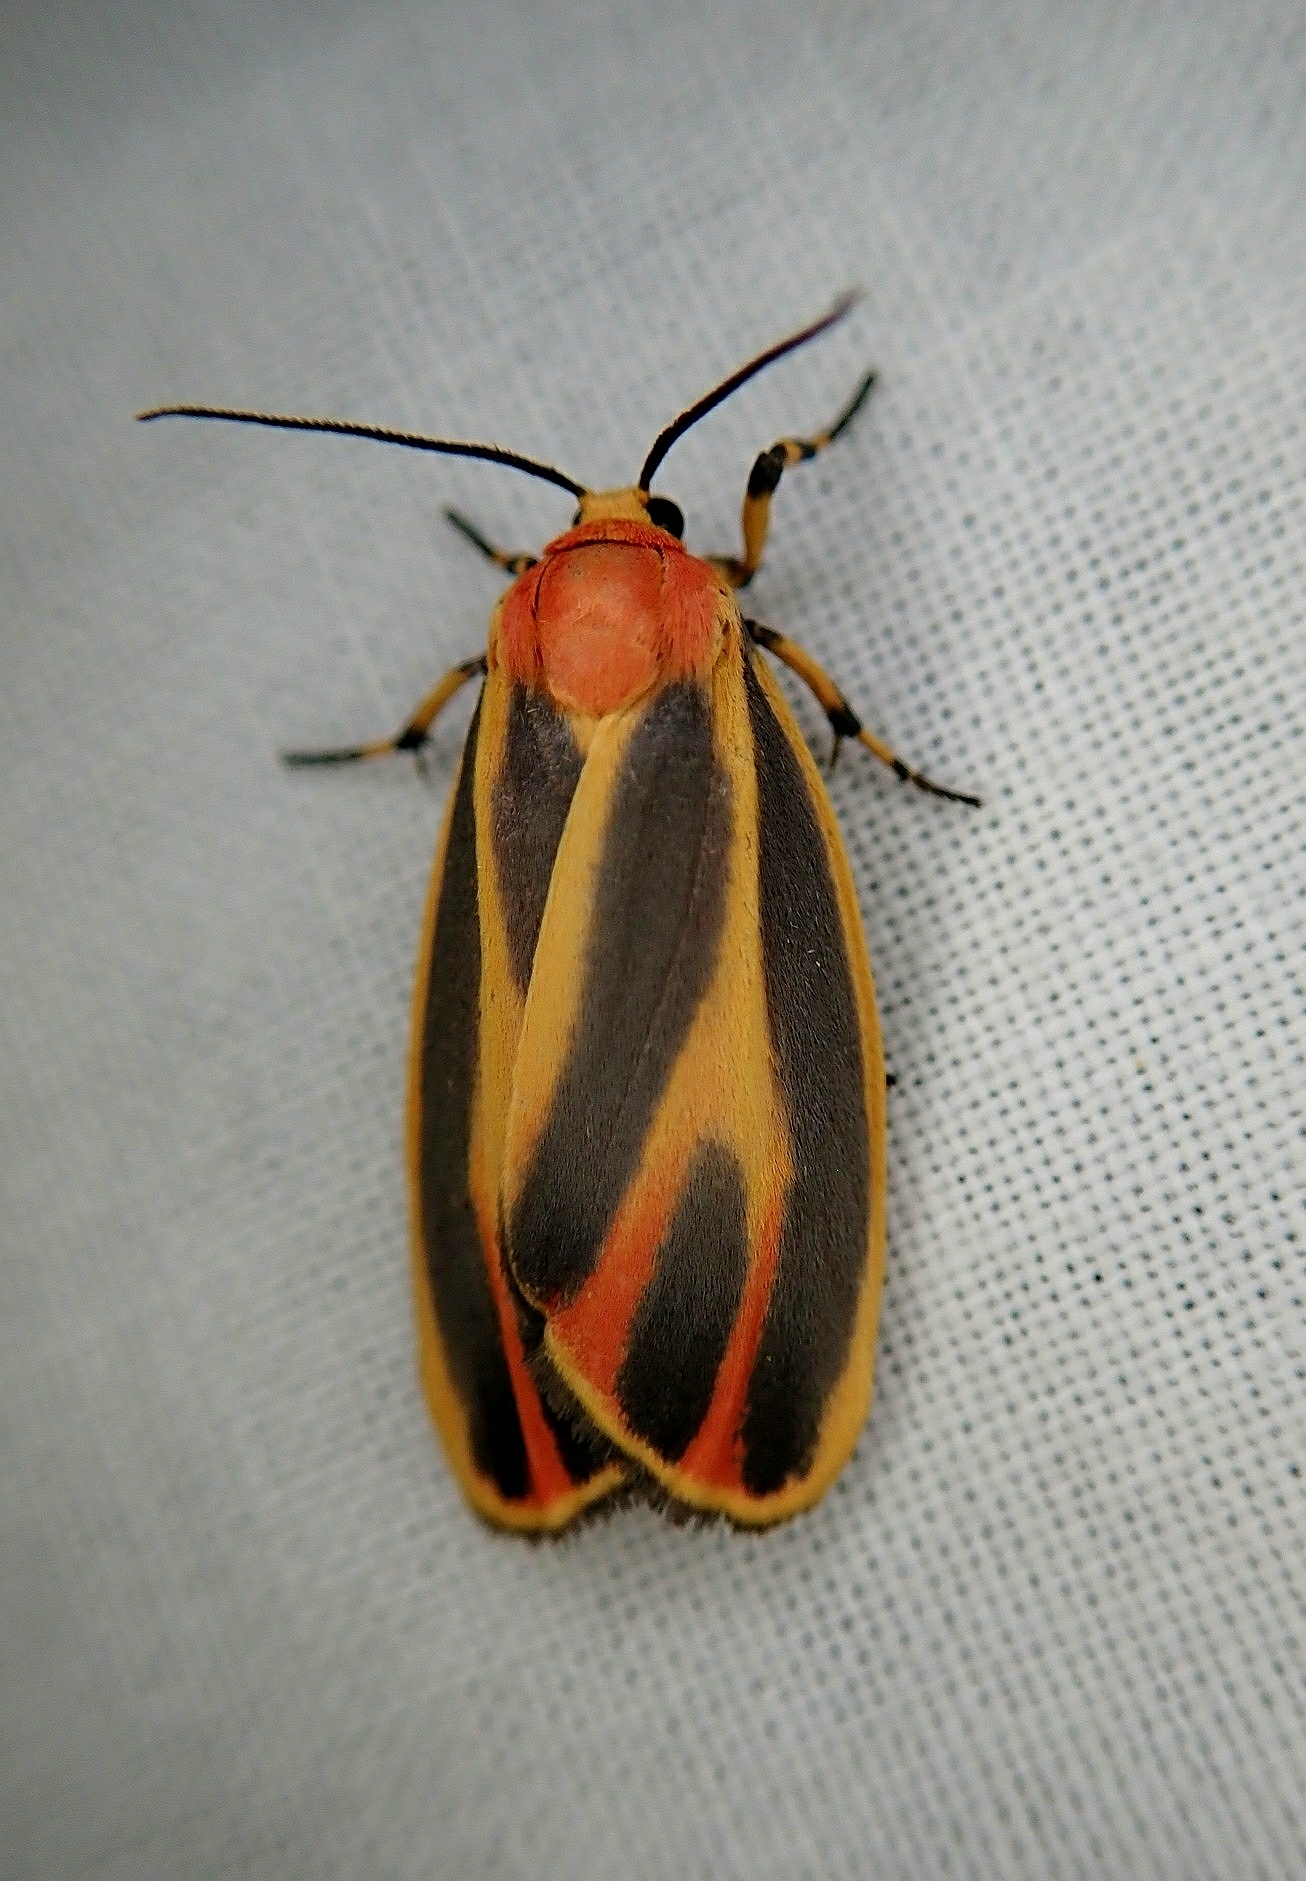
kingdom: Animalia
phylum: Arthropoda
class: Insecta
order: Lepidoptera
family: Erebidae
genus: Hypoprepia
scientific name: Hypoprepia fucosa
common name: Painted lichen moth
